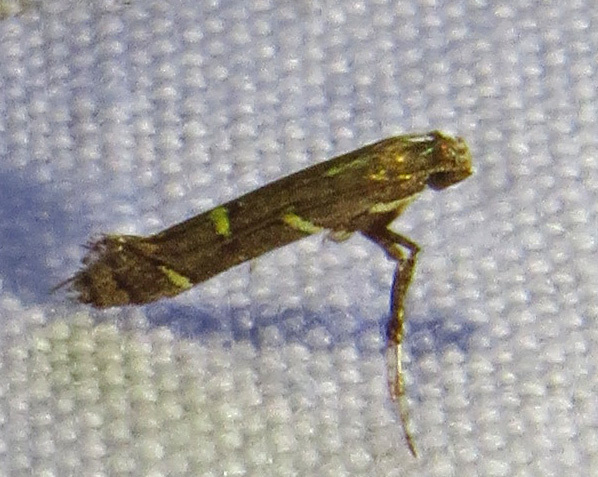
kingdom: Animalia
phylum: Arthropoda
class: Insecta
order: Lepidoptera
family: Gracillariidae
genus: Caloptilia
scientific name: Caloptilia triadicae
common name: Tallow leaf roller
